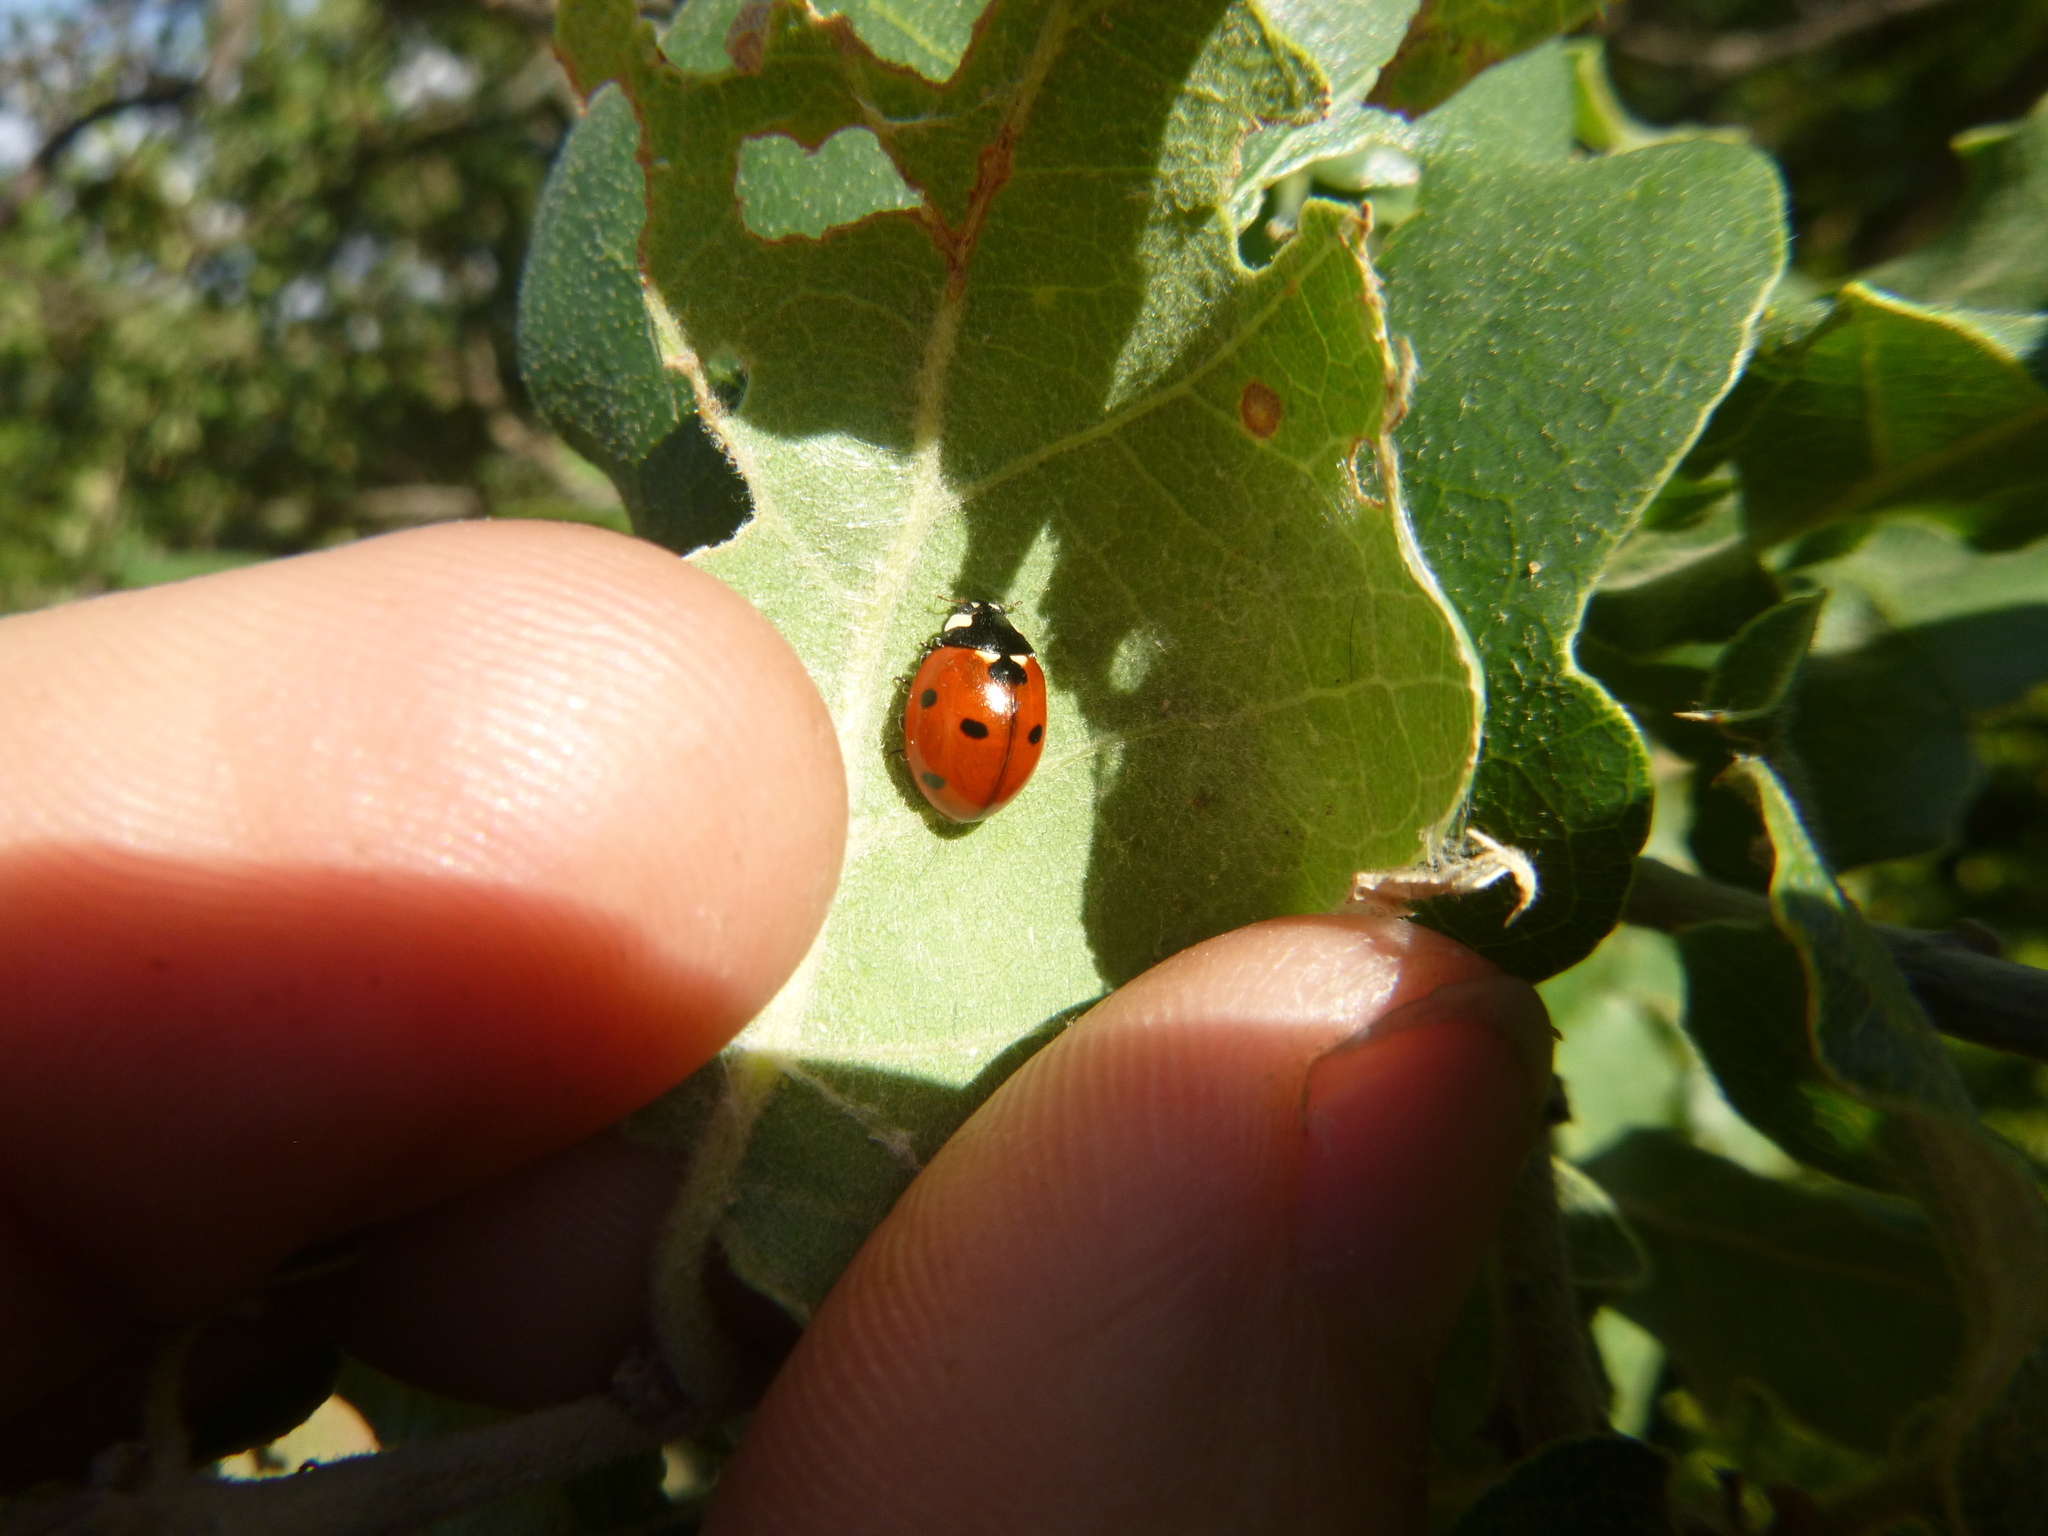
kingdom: Animalia
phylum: Arthropoda
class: Insecta
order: Coleoptera
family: Coccinellidae
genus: Coccinella
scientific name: Coccinella septempunctata
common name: Sevenspotted lady beetle
